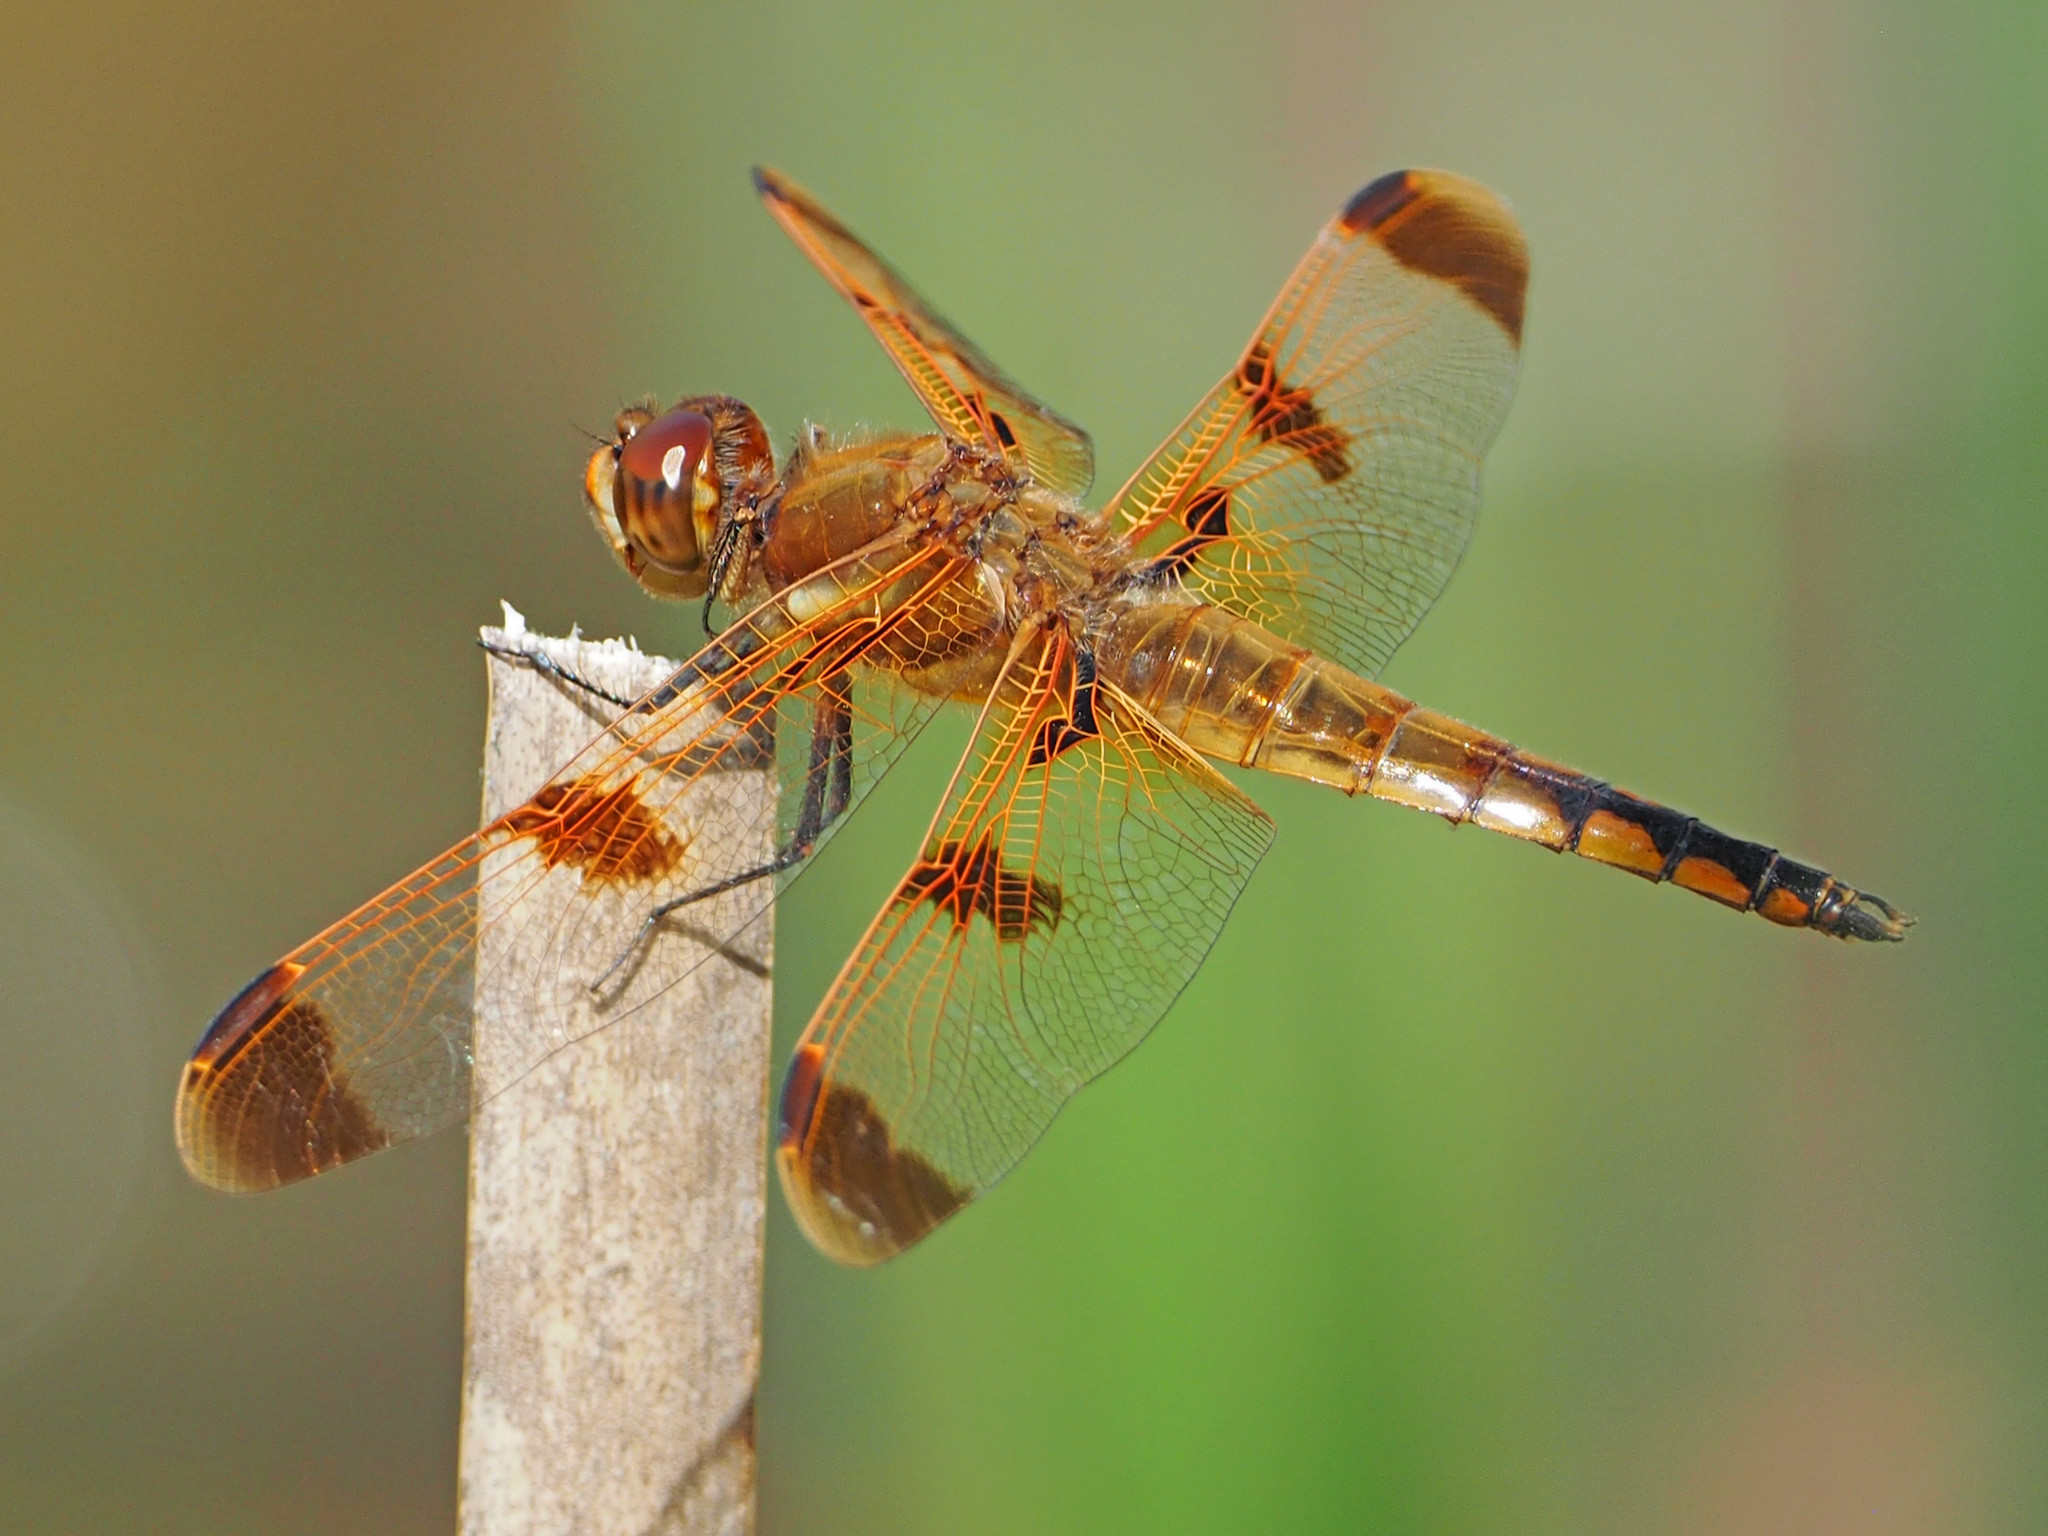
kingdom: Animalia
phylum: Arthropoda
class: Insecta
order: Odonata
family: Libellulidae
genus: Libellula
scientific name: Libellula semifasciata
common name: Painted skimmer
